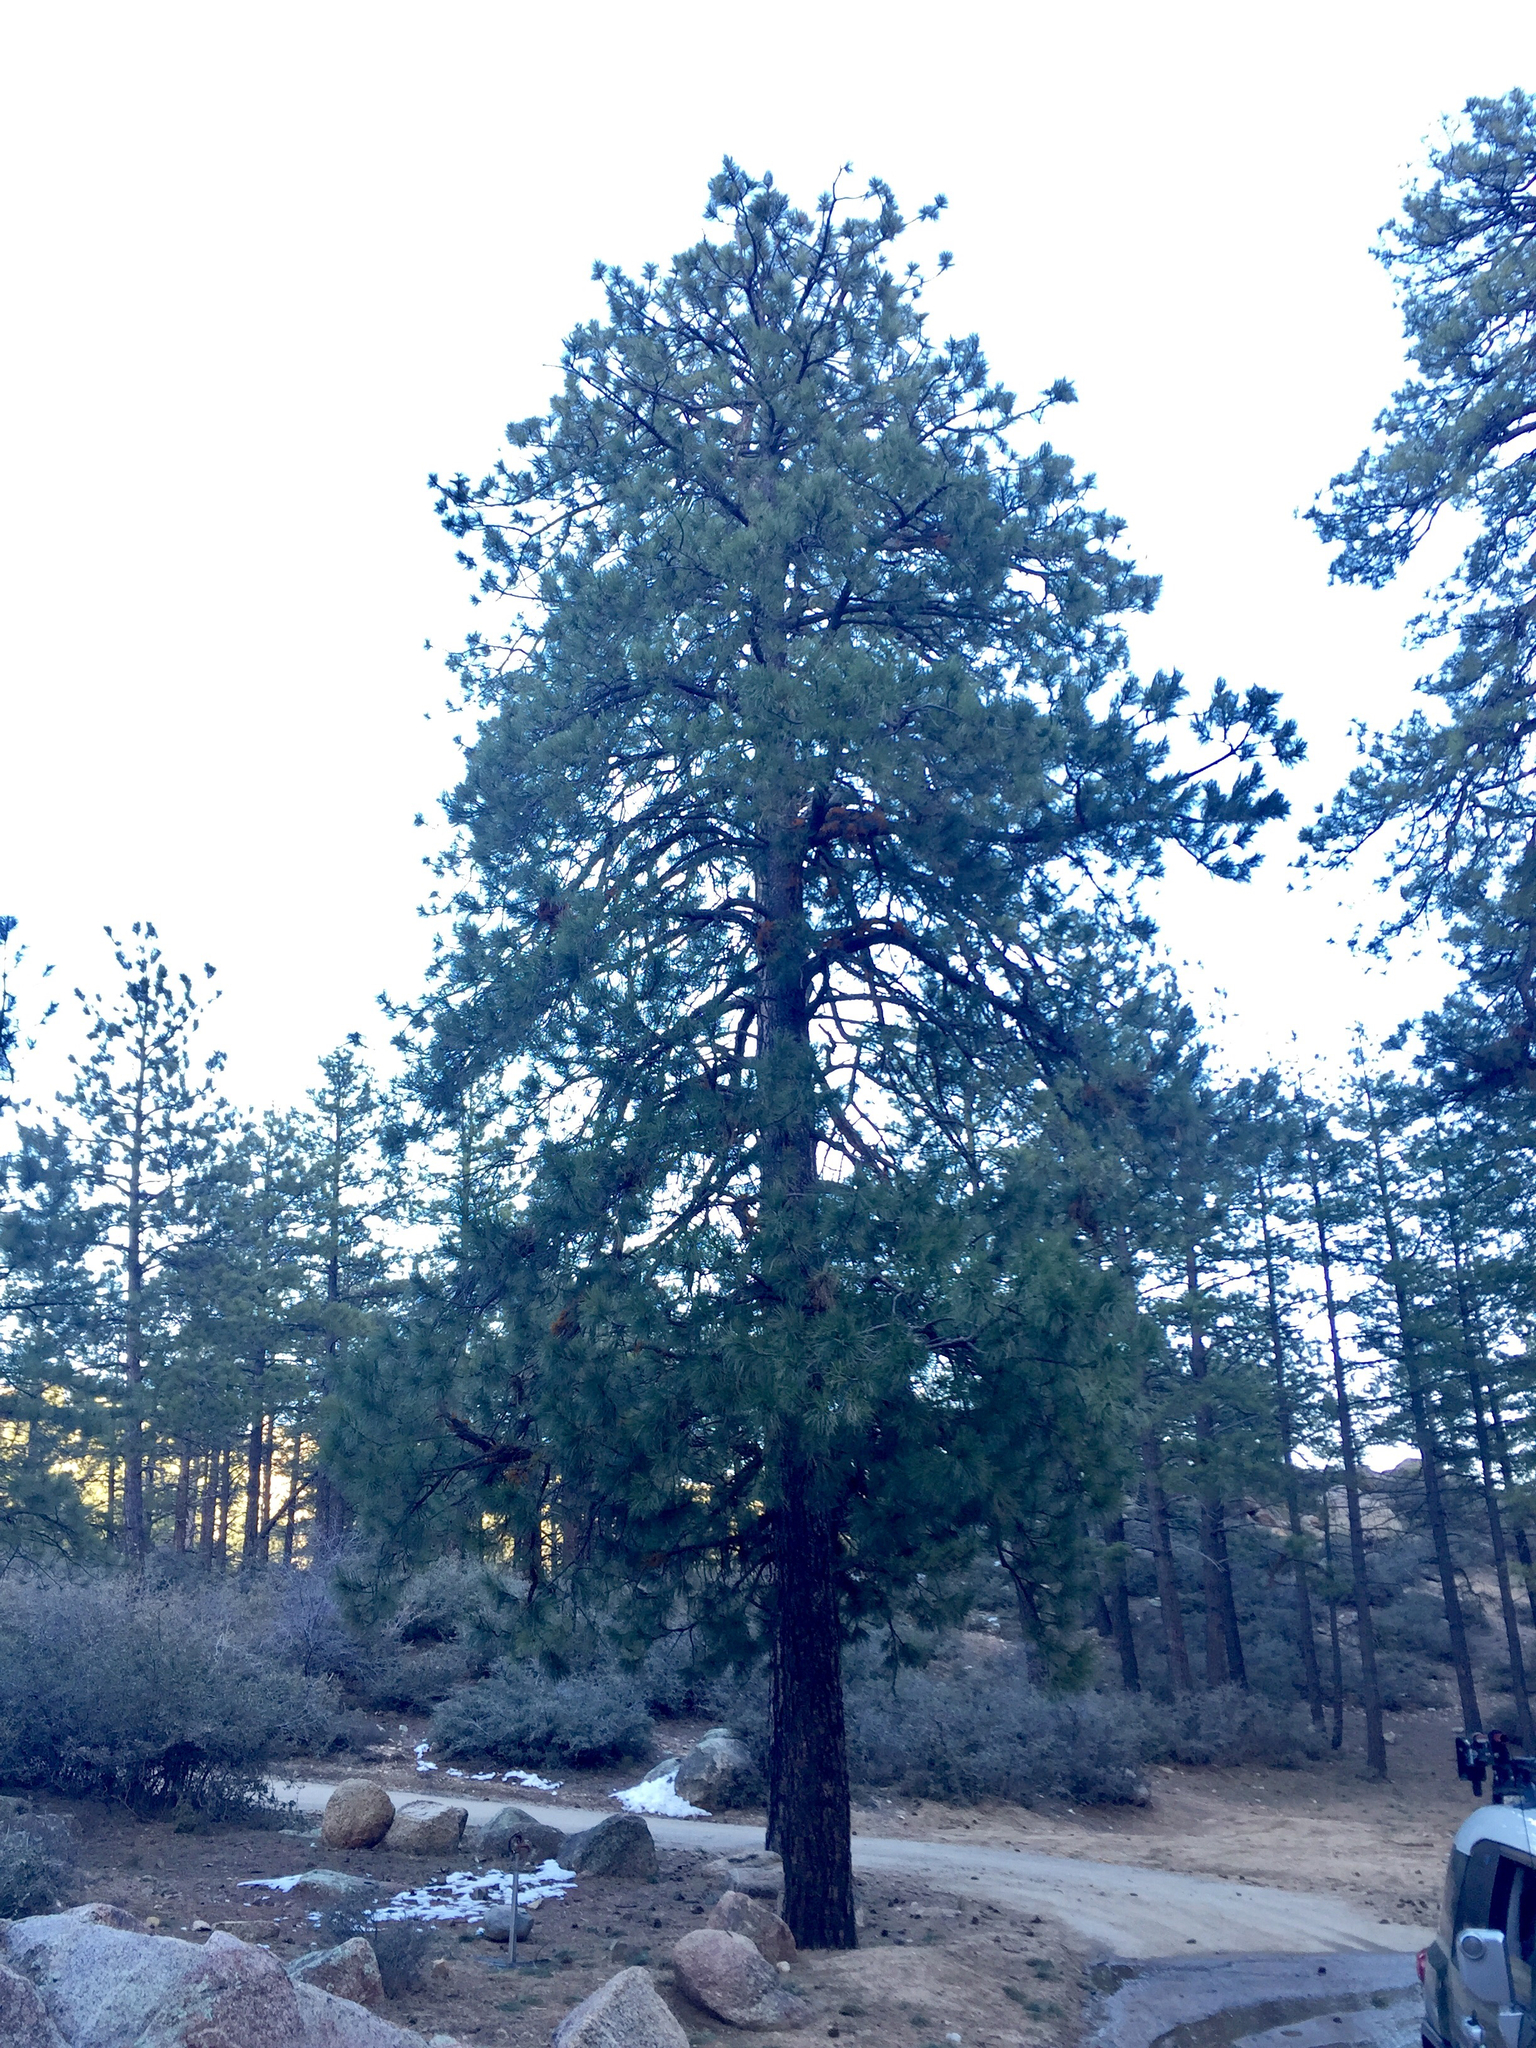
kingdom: Plantae
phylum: Tracheophyta
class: Pinopsida
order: Pinales
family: Pinaceae
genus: Pinus
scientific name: Pinus ponderosa
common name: Western yellow-pine
